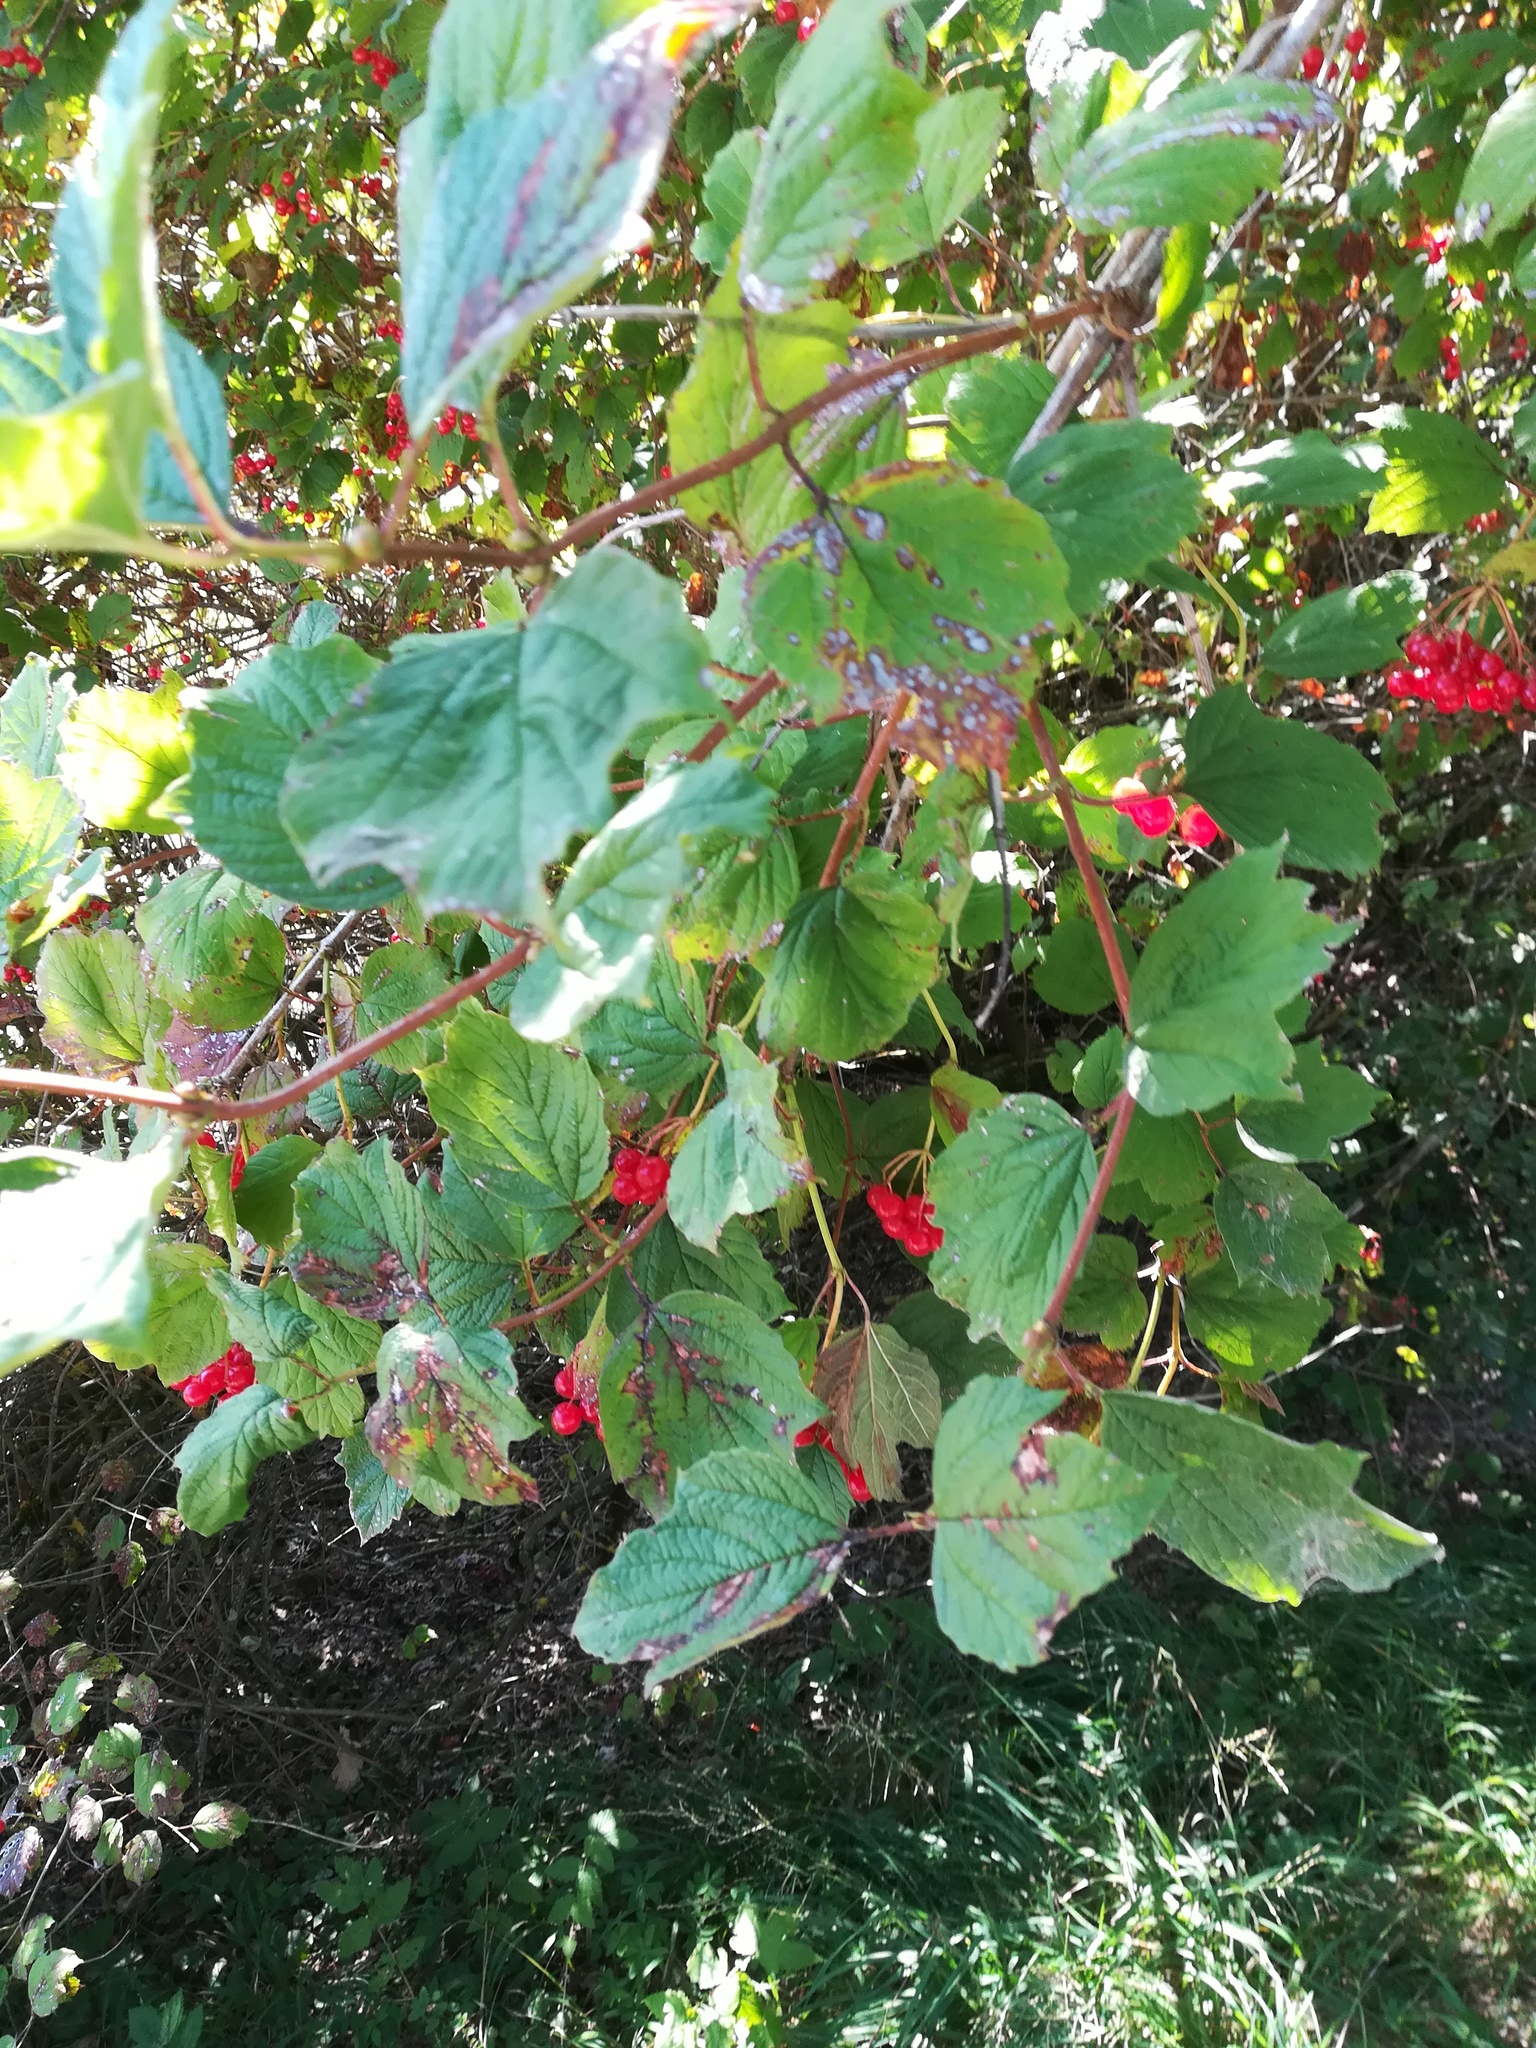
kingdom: Plantae
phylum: Tracheophyta
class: Magnoliopsida
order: Dipsacales
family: Viburnaceae
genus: Viburnum
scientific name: Viburnum opulus
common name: Guelder-rose
